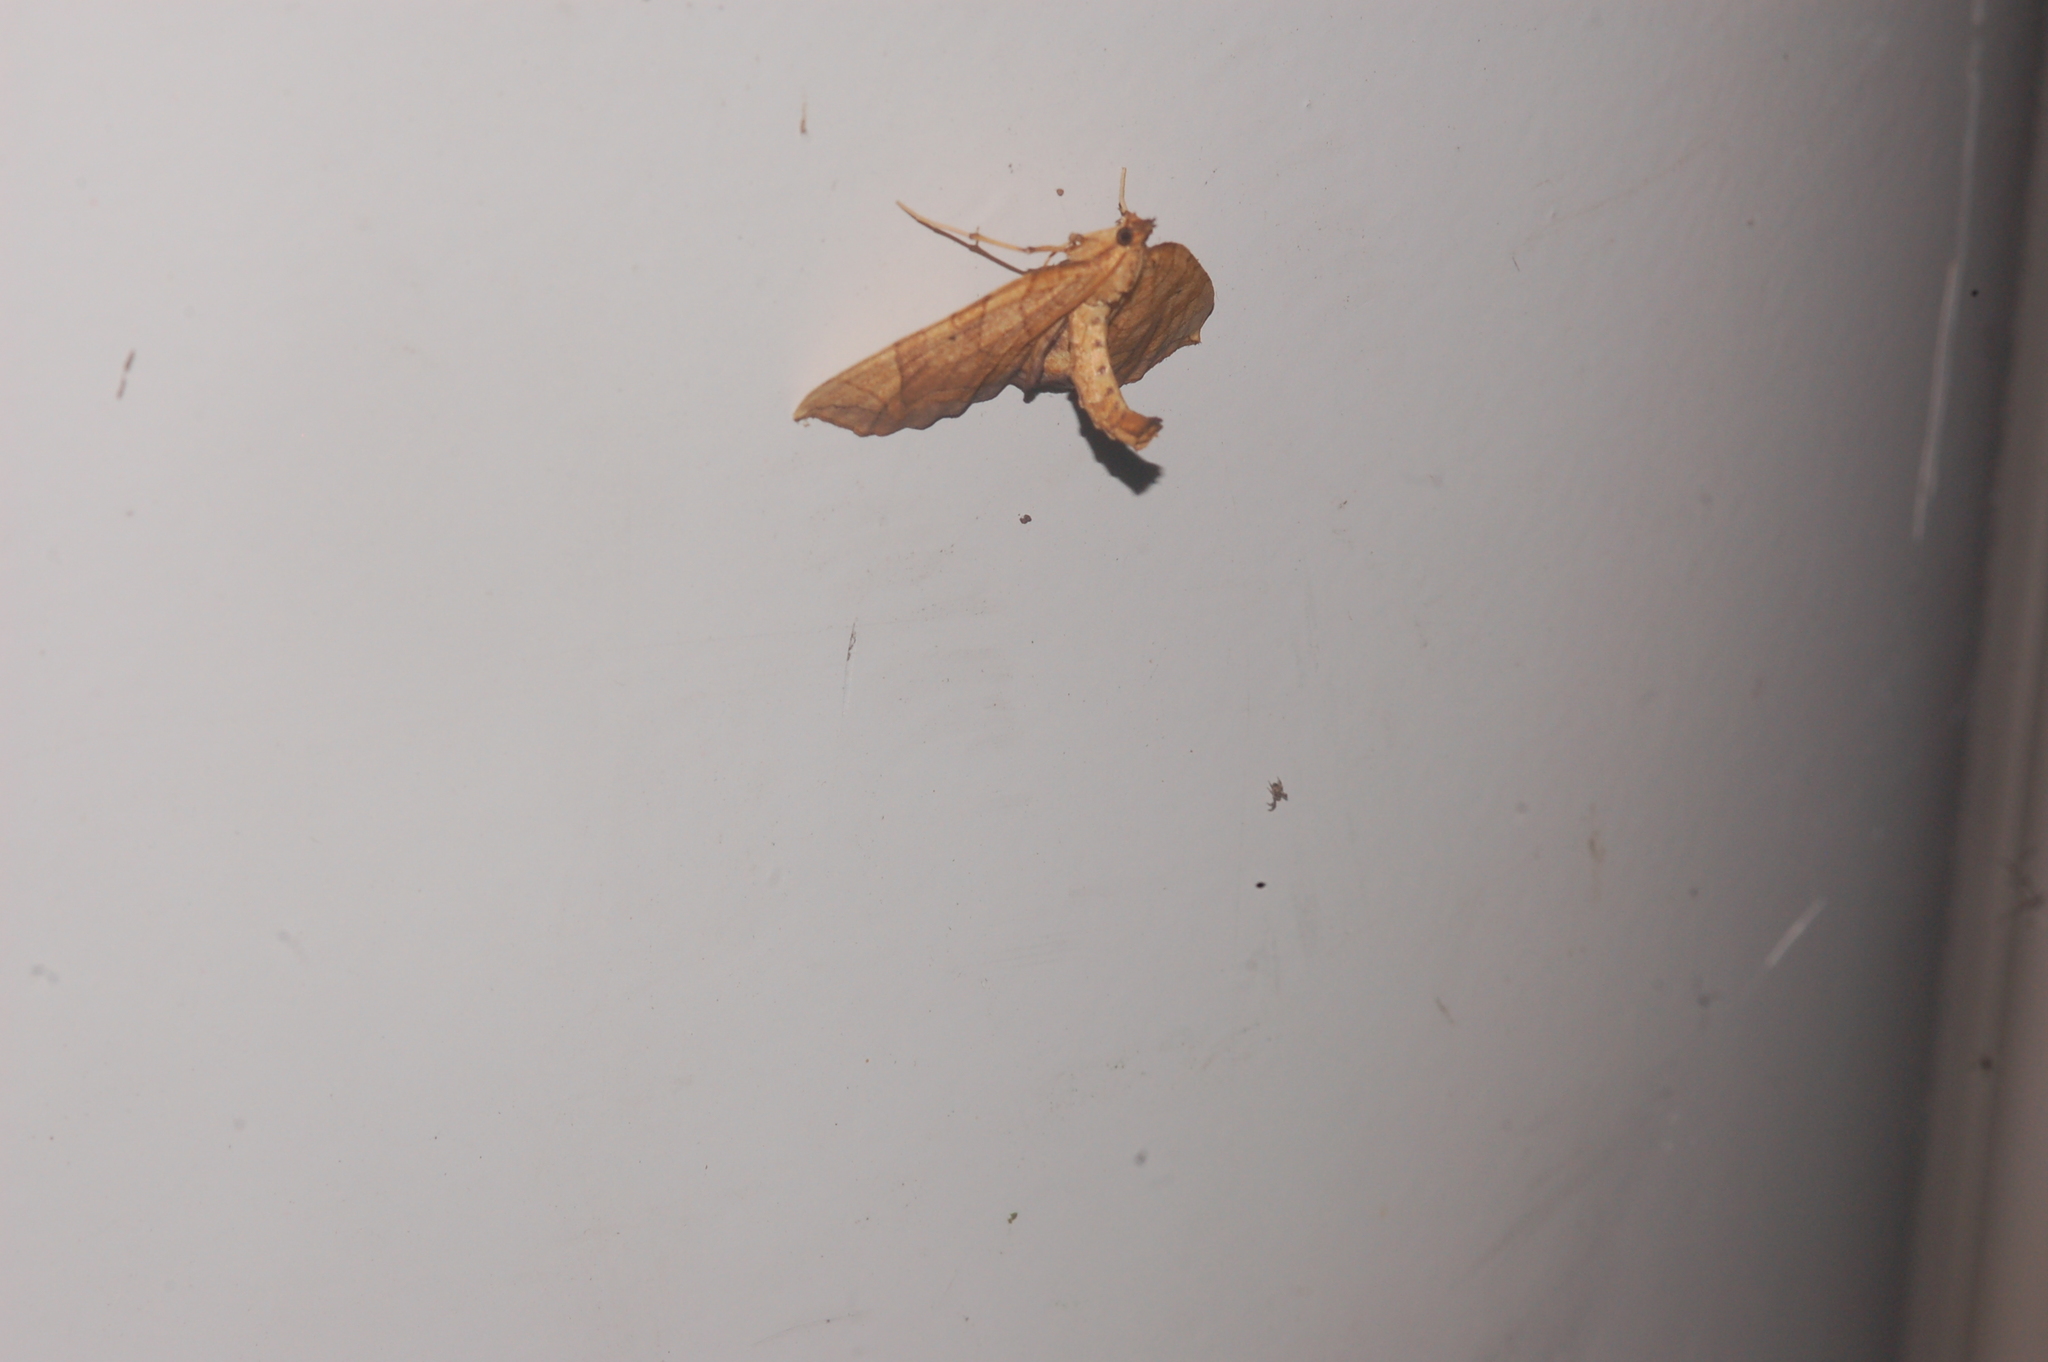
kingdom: Animalia
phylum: Arthropoda
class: Insecta
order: Lepidoptera
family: Geometridae
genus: Eulithis
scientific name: Eulithis
